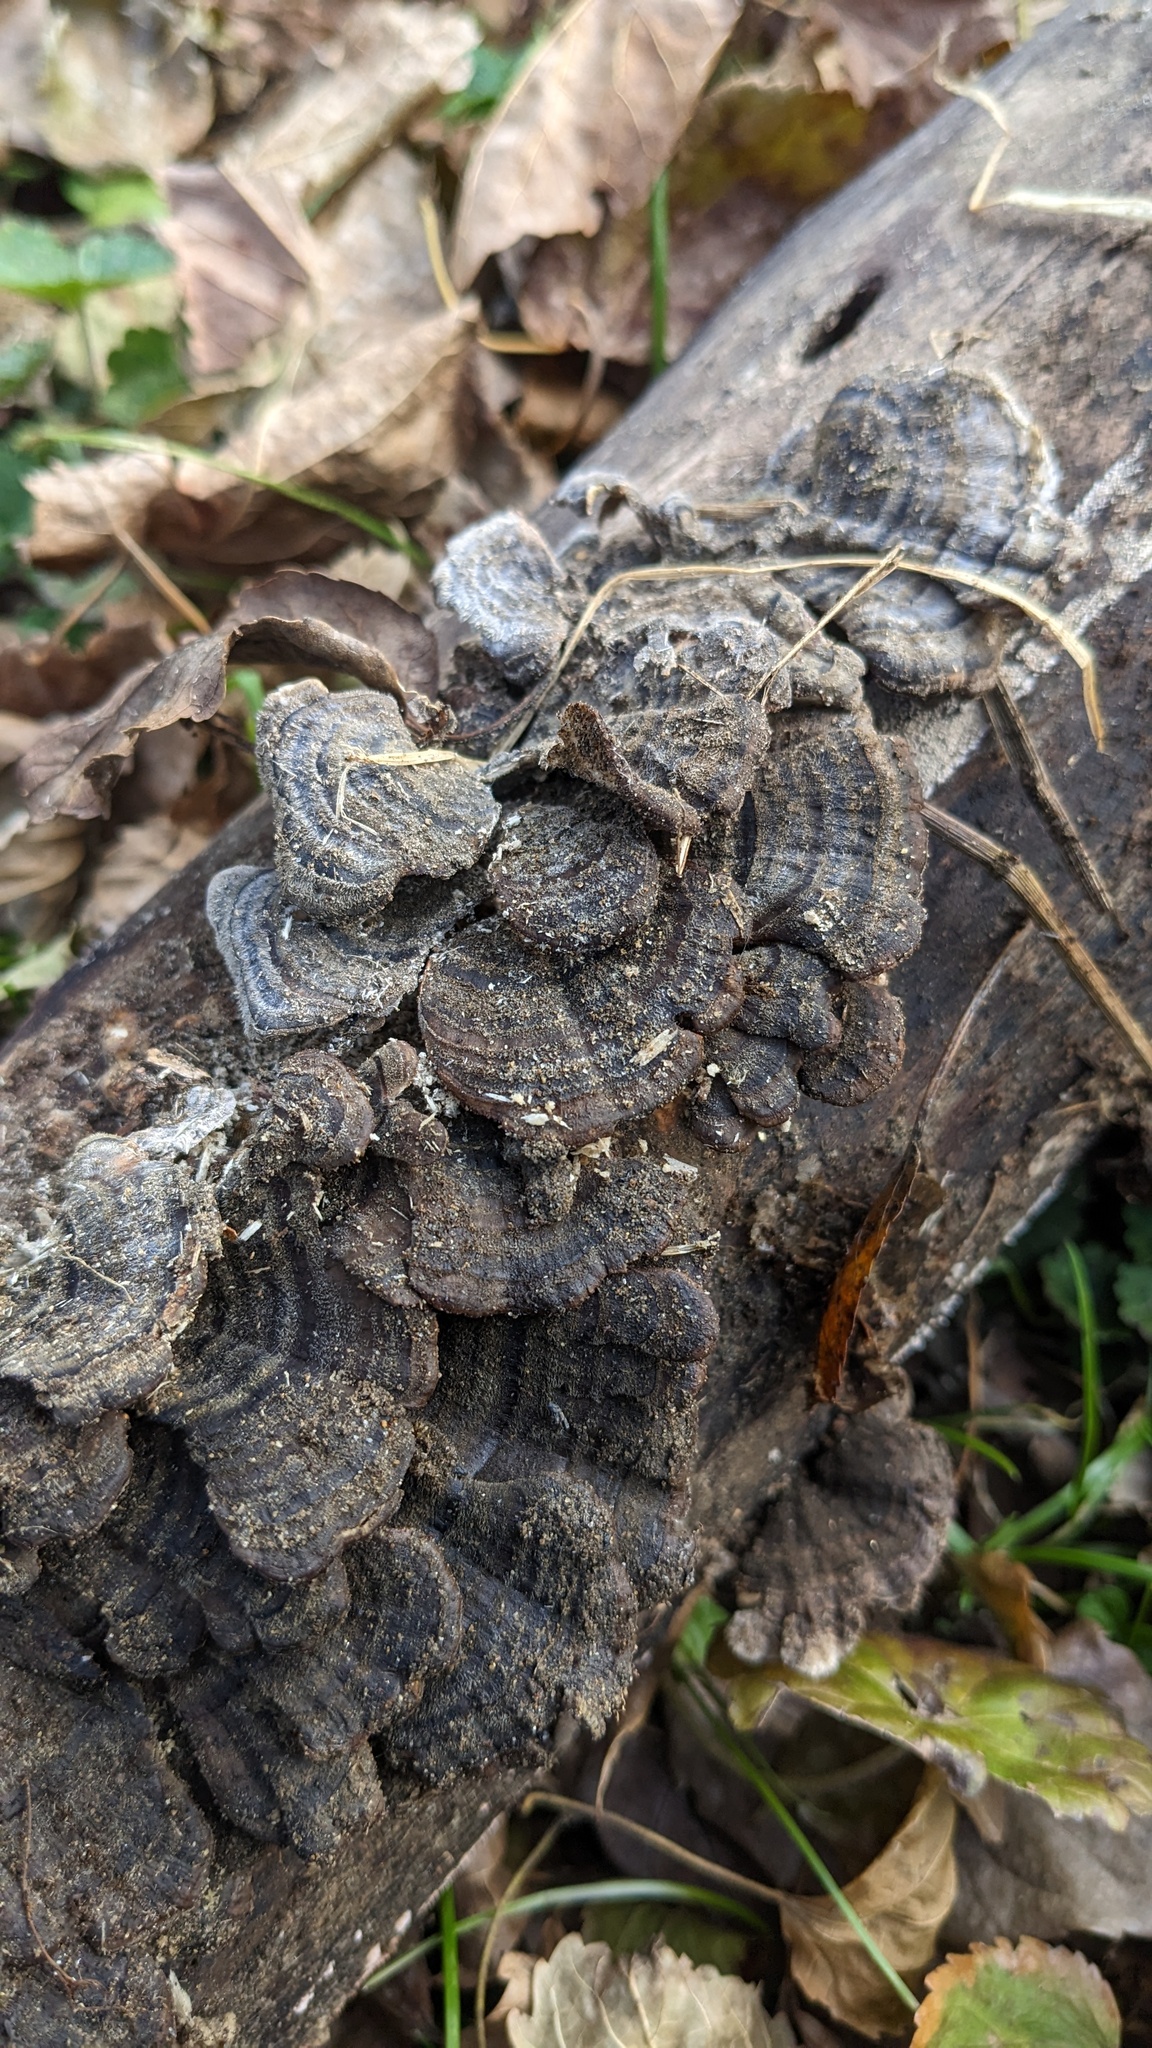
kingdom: Fungi
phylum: Basidiomycota
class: Agaricomycetes
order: Polyporales
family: Polyporaceae
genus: Trametes
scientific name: Trametes versicolor
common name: Turkeytail
